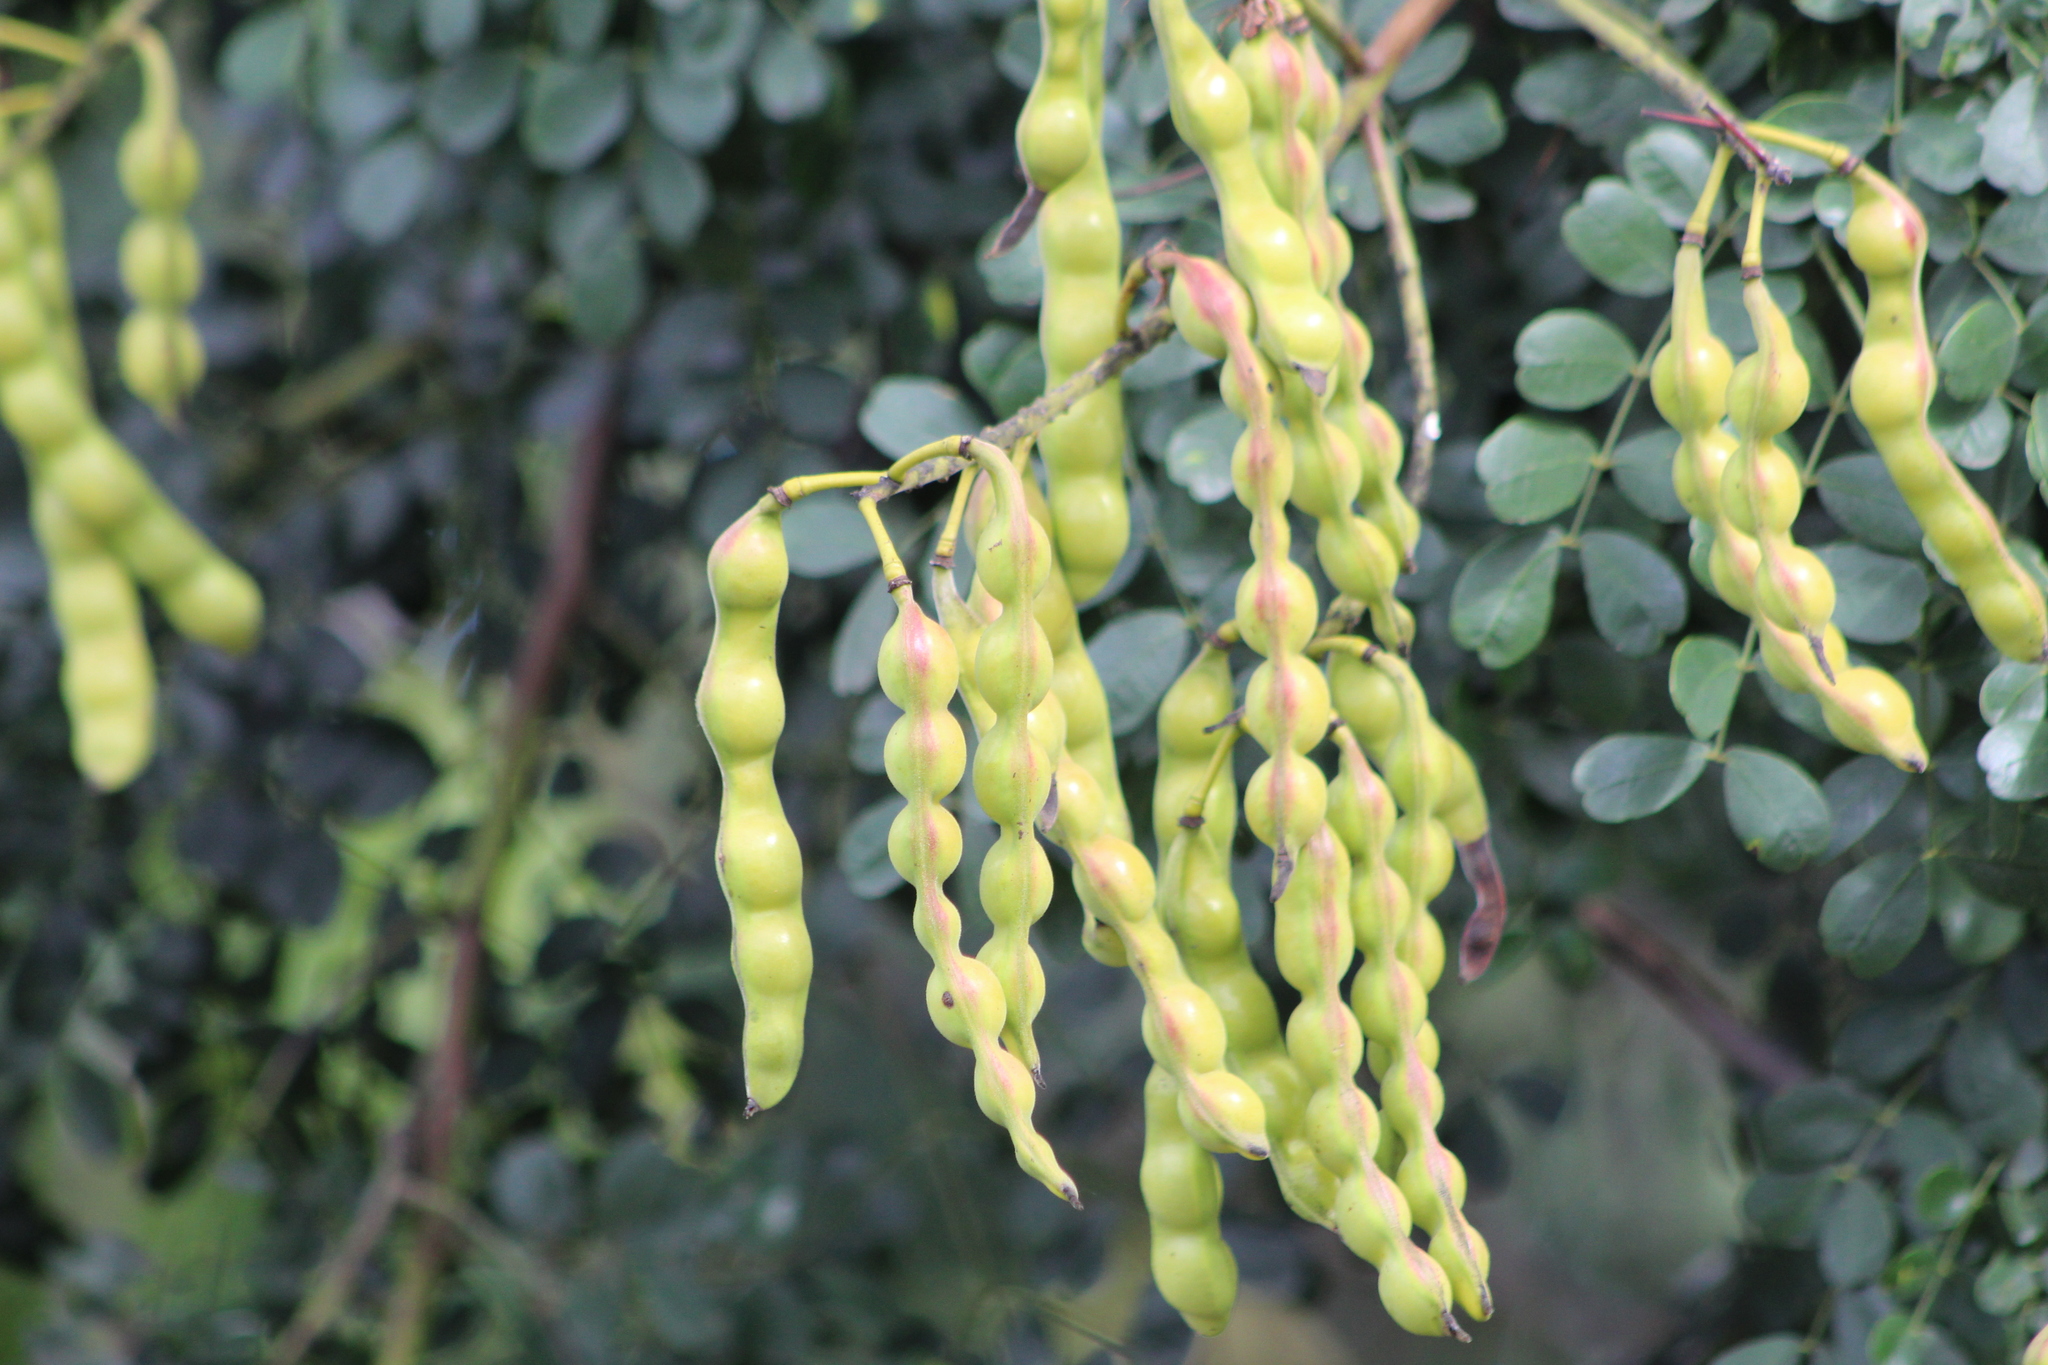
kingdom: Plantae
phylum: Tracheophyta
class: Magnoliopsida
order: Fabales
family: Fabaceae
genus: Tara
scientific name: Tara cacalaco
